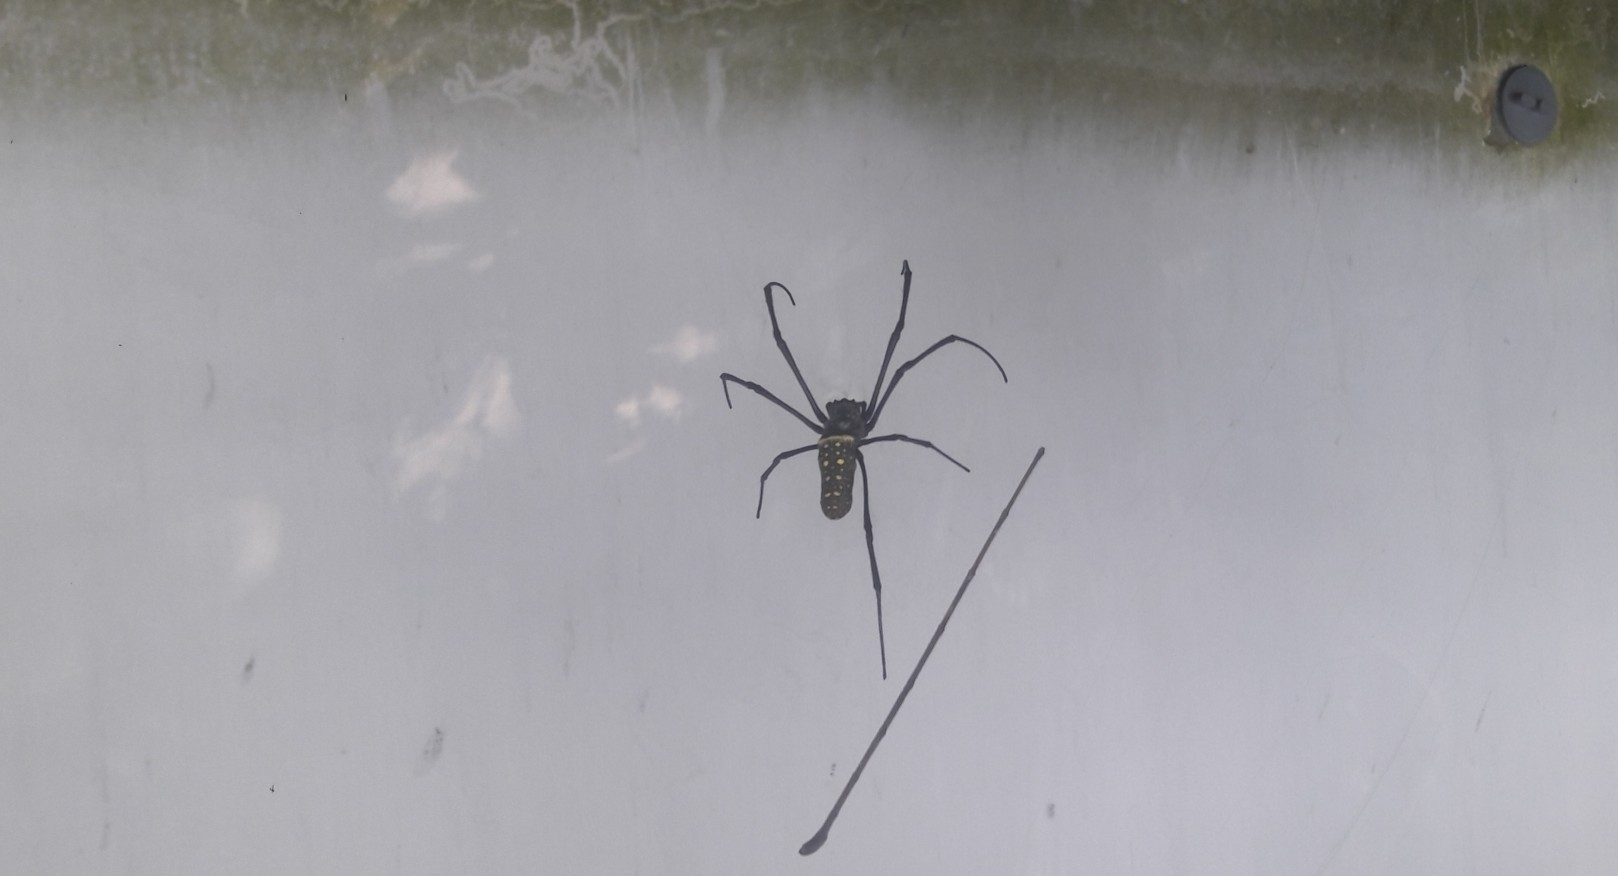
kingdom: Animalia
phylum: Arthropoda
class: Arachnida
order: Araneae
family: Araneidae
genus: Trichonephila
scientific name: Trichonephila antipodiana
